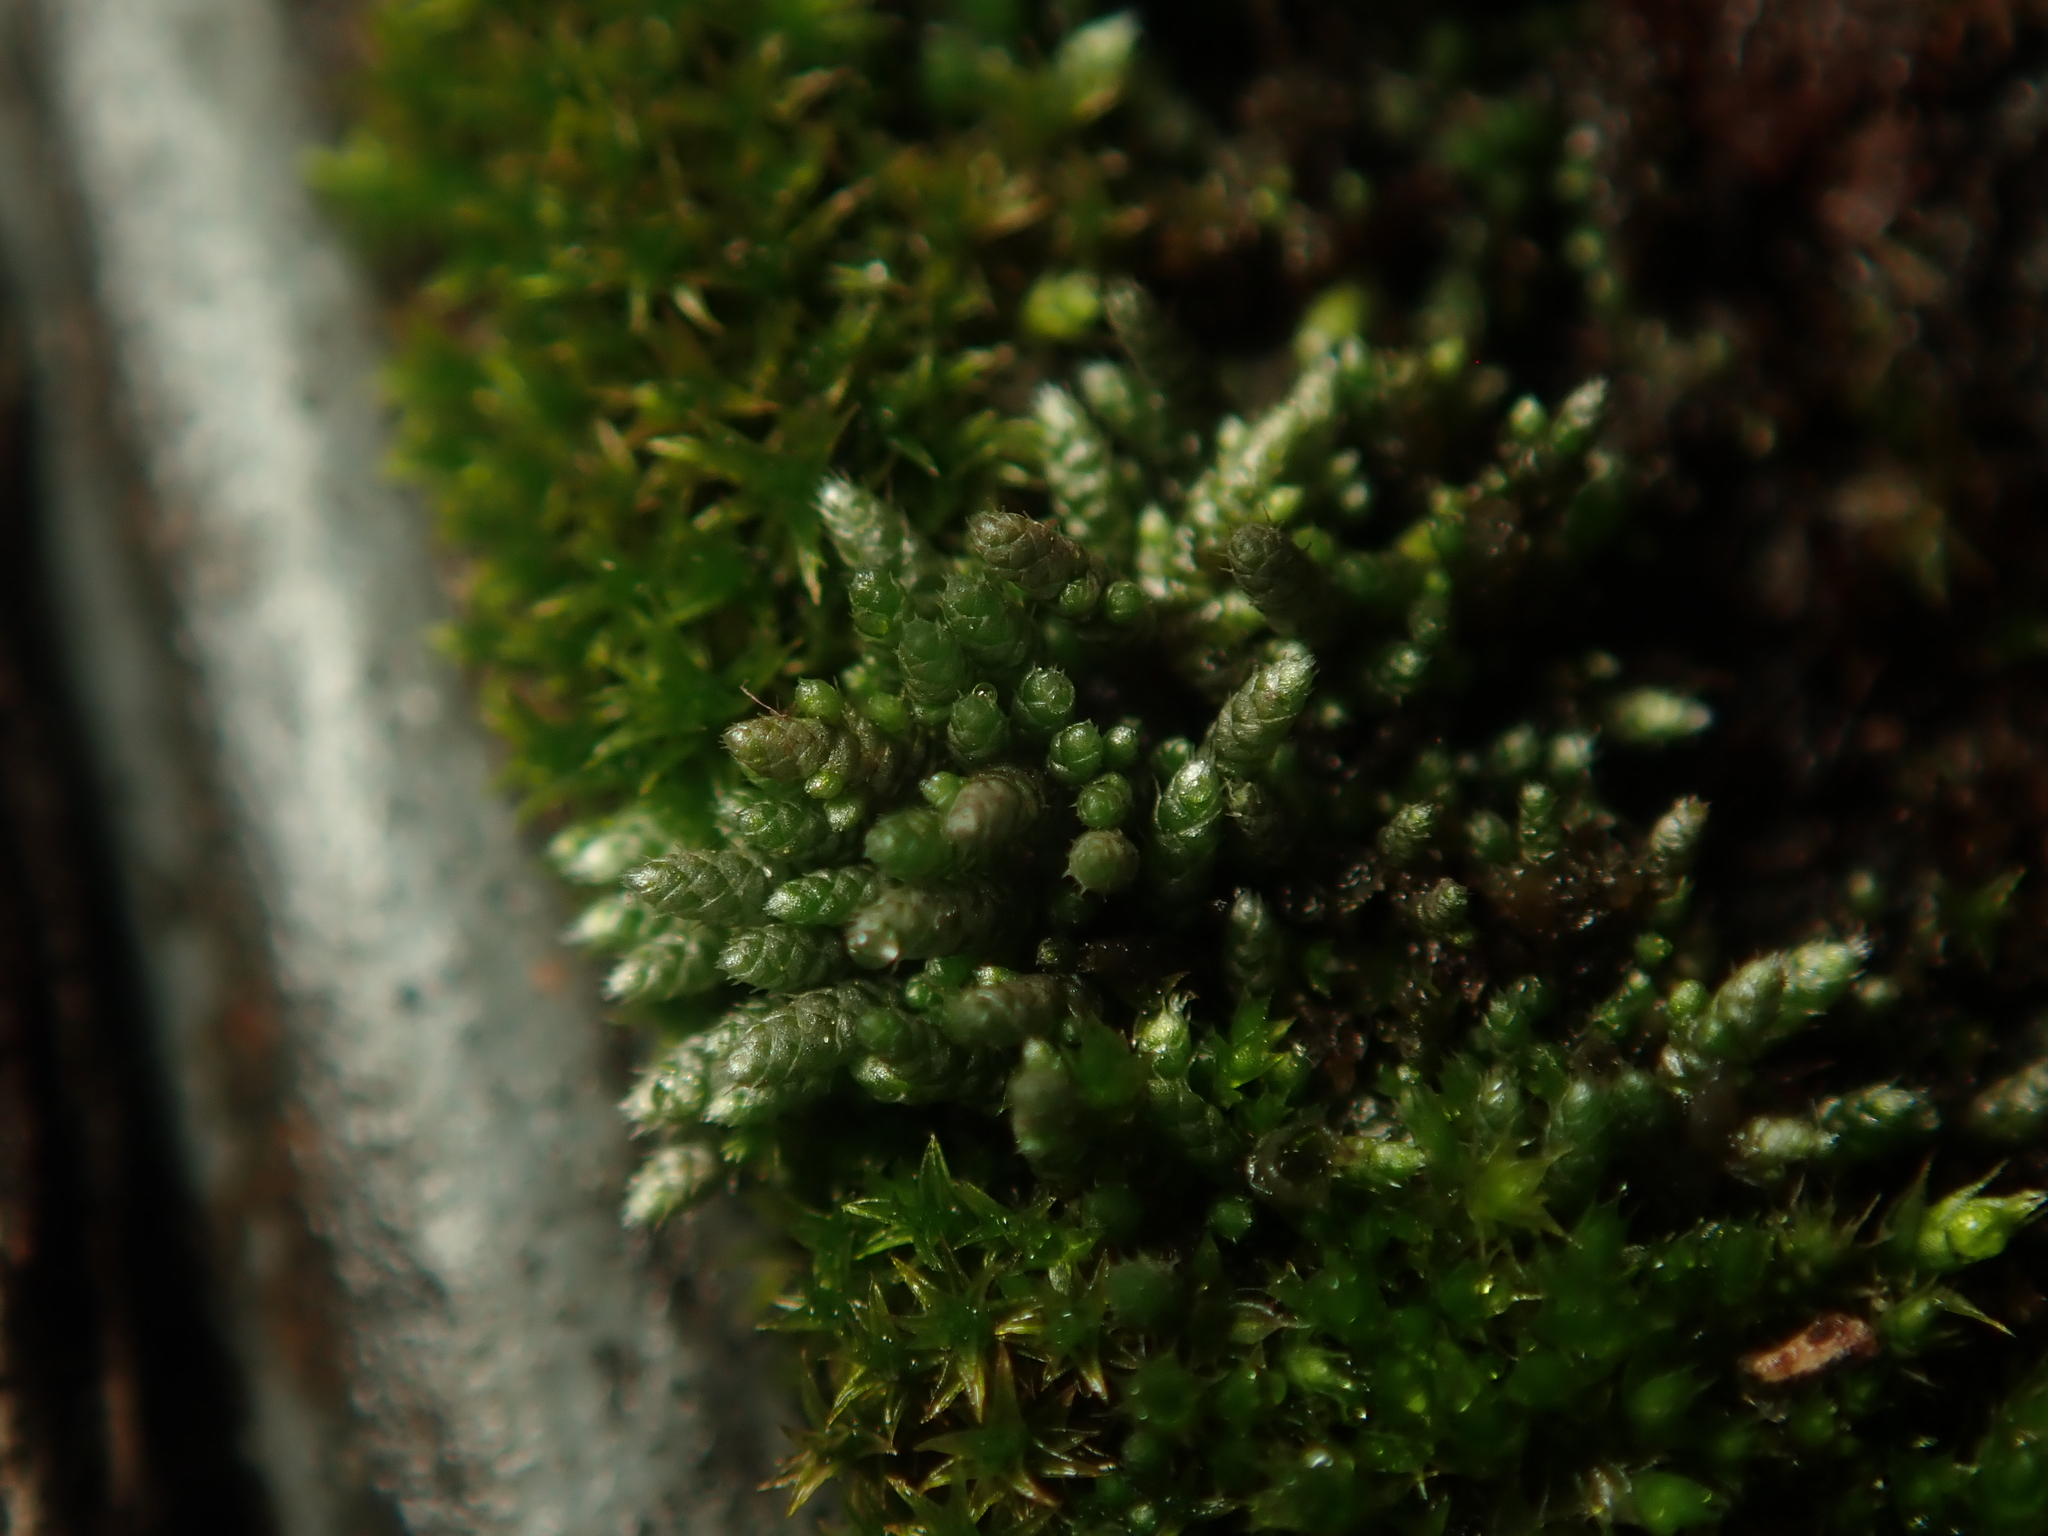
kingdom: Plantae
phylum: Bryophyta
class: Bryopsida
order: Bryales
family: Bryaceae
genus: Bryum
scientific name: Bryum argenteum
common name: Silver-moss
